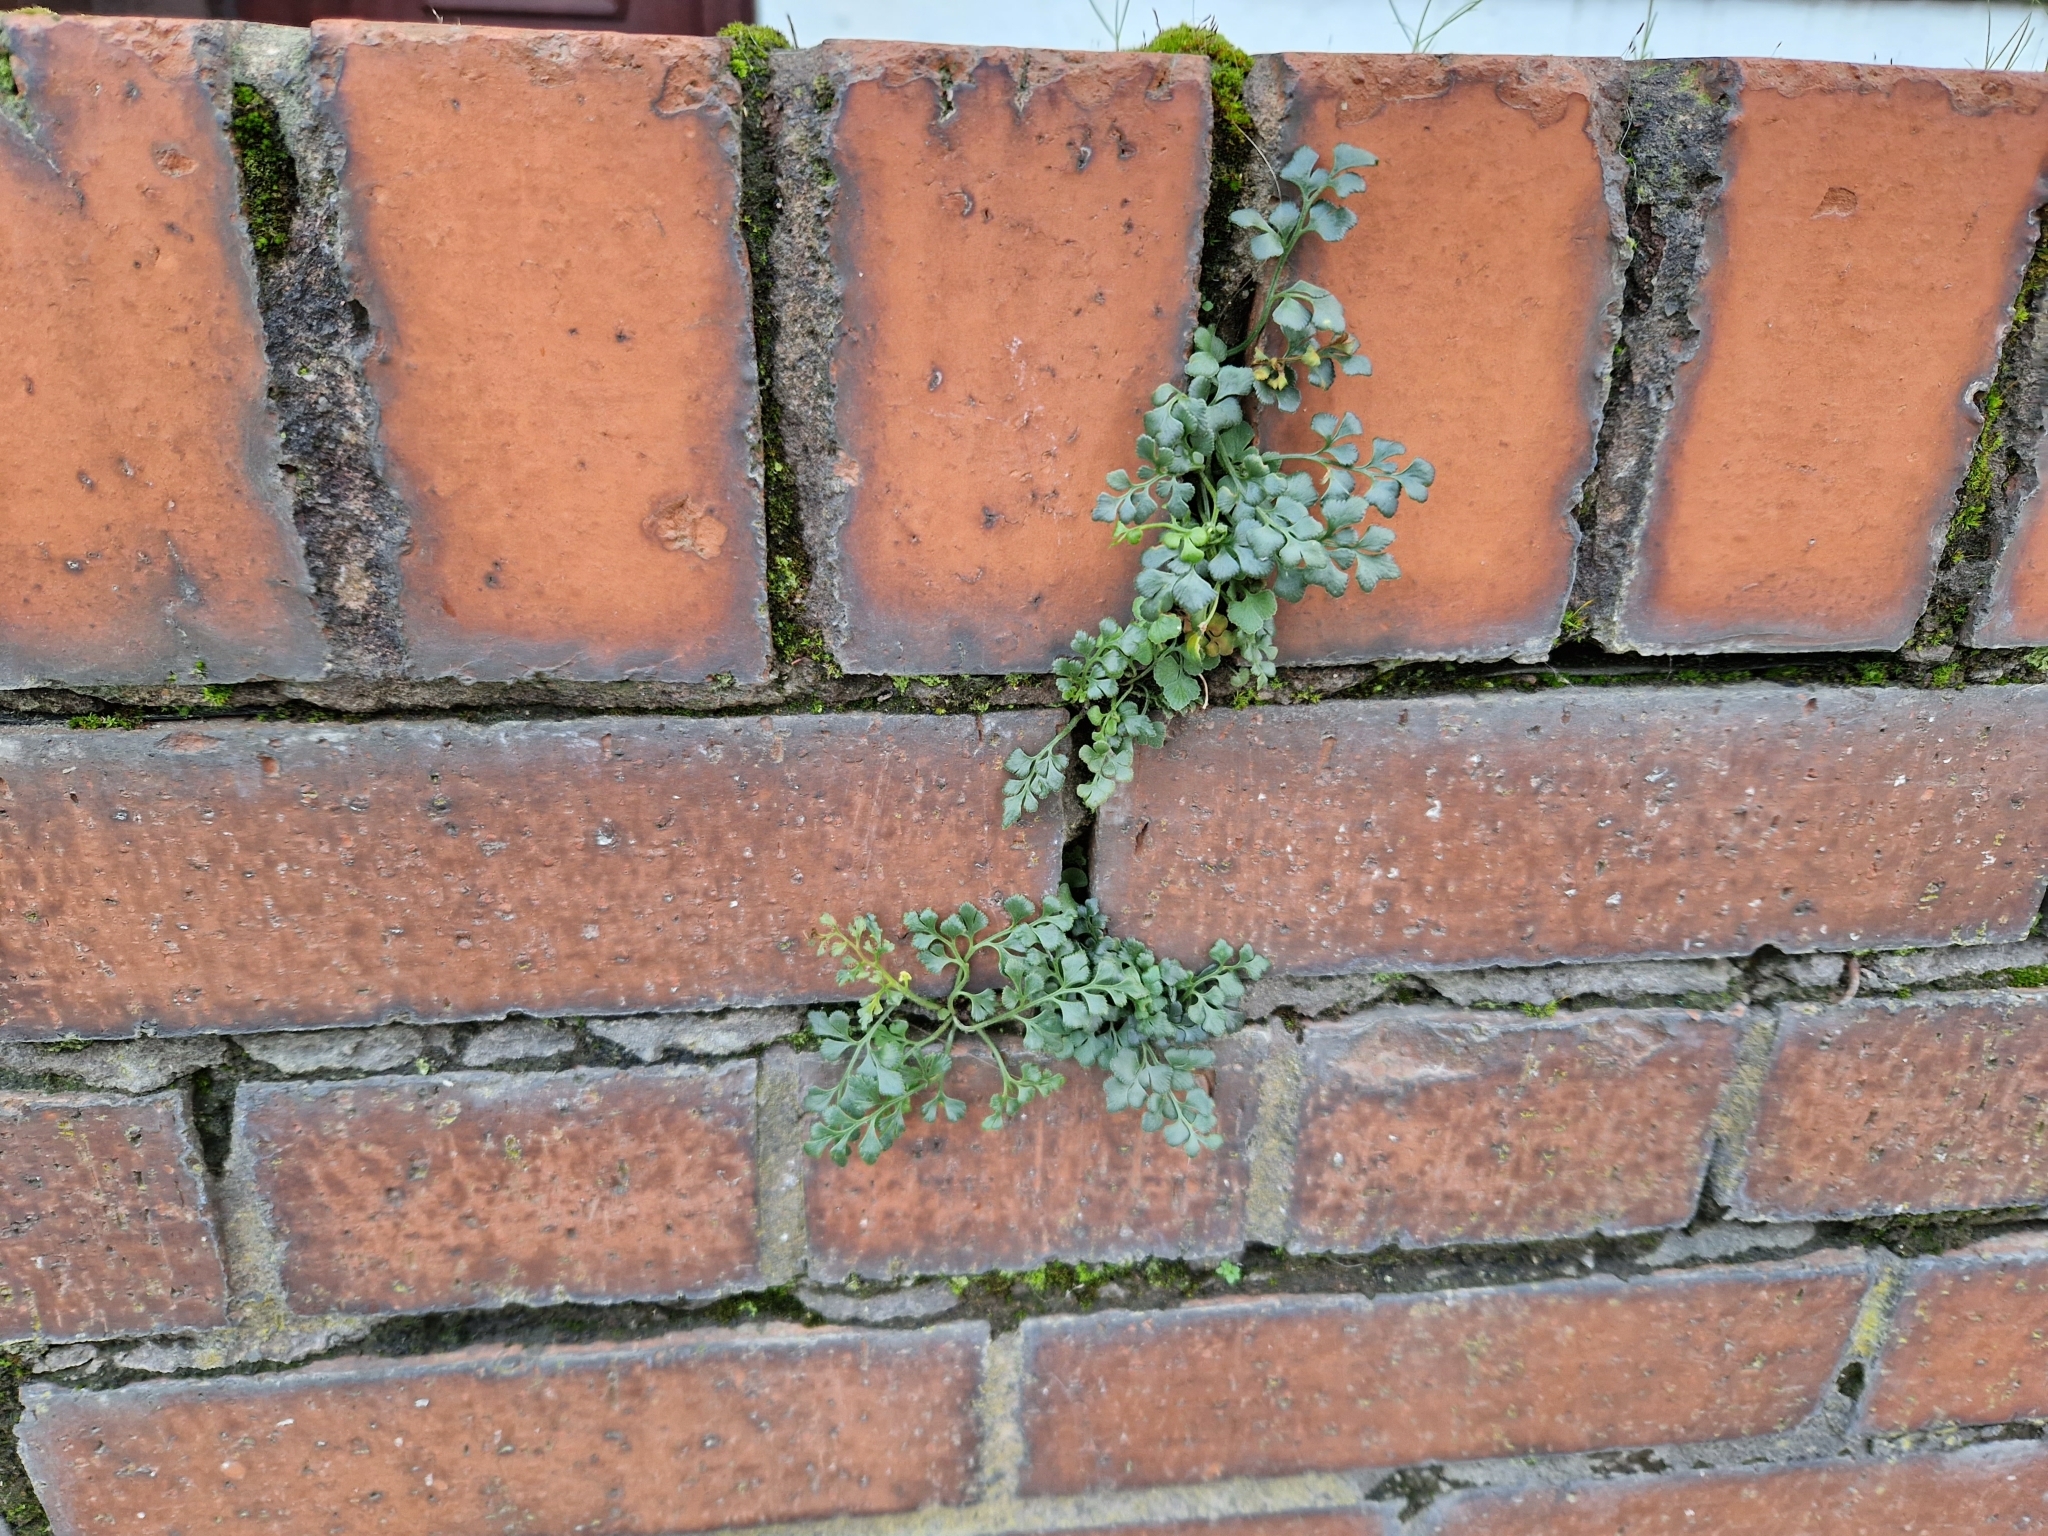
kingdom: Plantae
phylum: Tracheophyta
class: Polypodiopsida
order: Polypodiales
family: Aspleniaceae
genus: Asplenium
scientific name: Asplenium ruta-muraria
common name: Wall-rue
